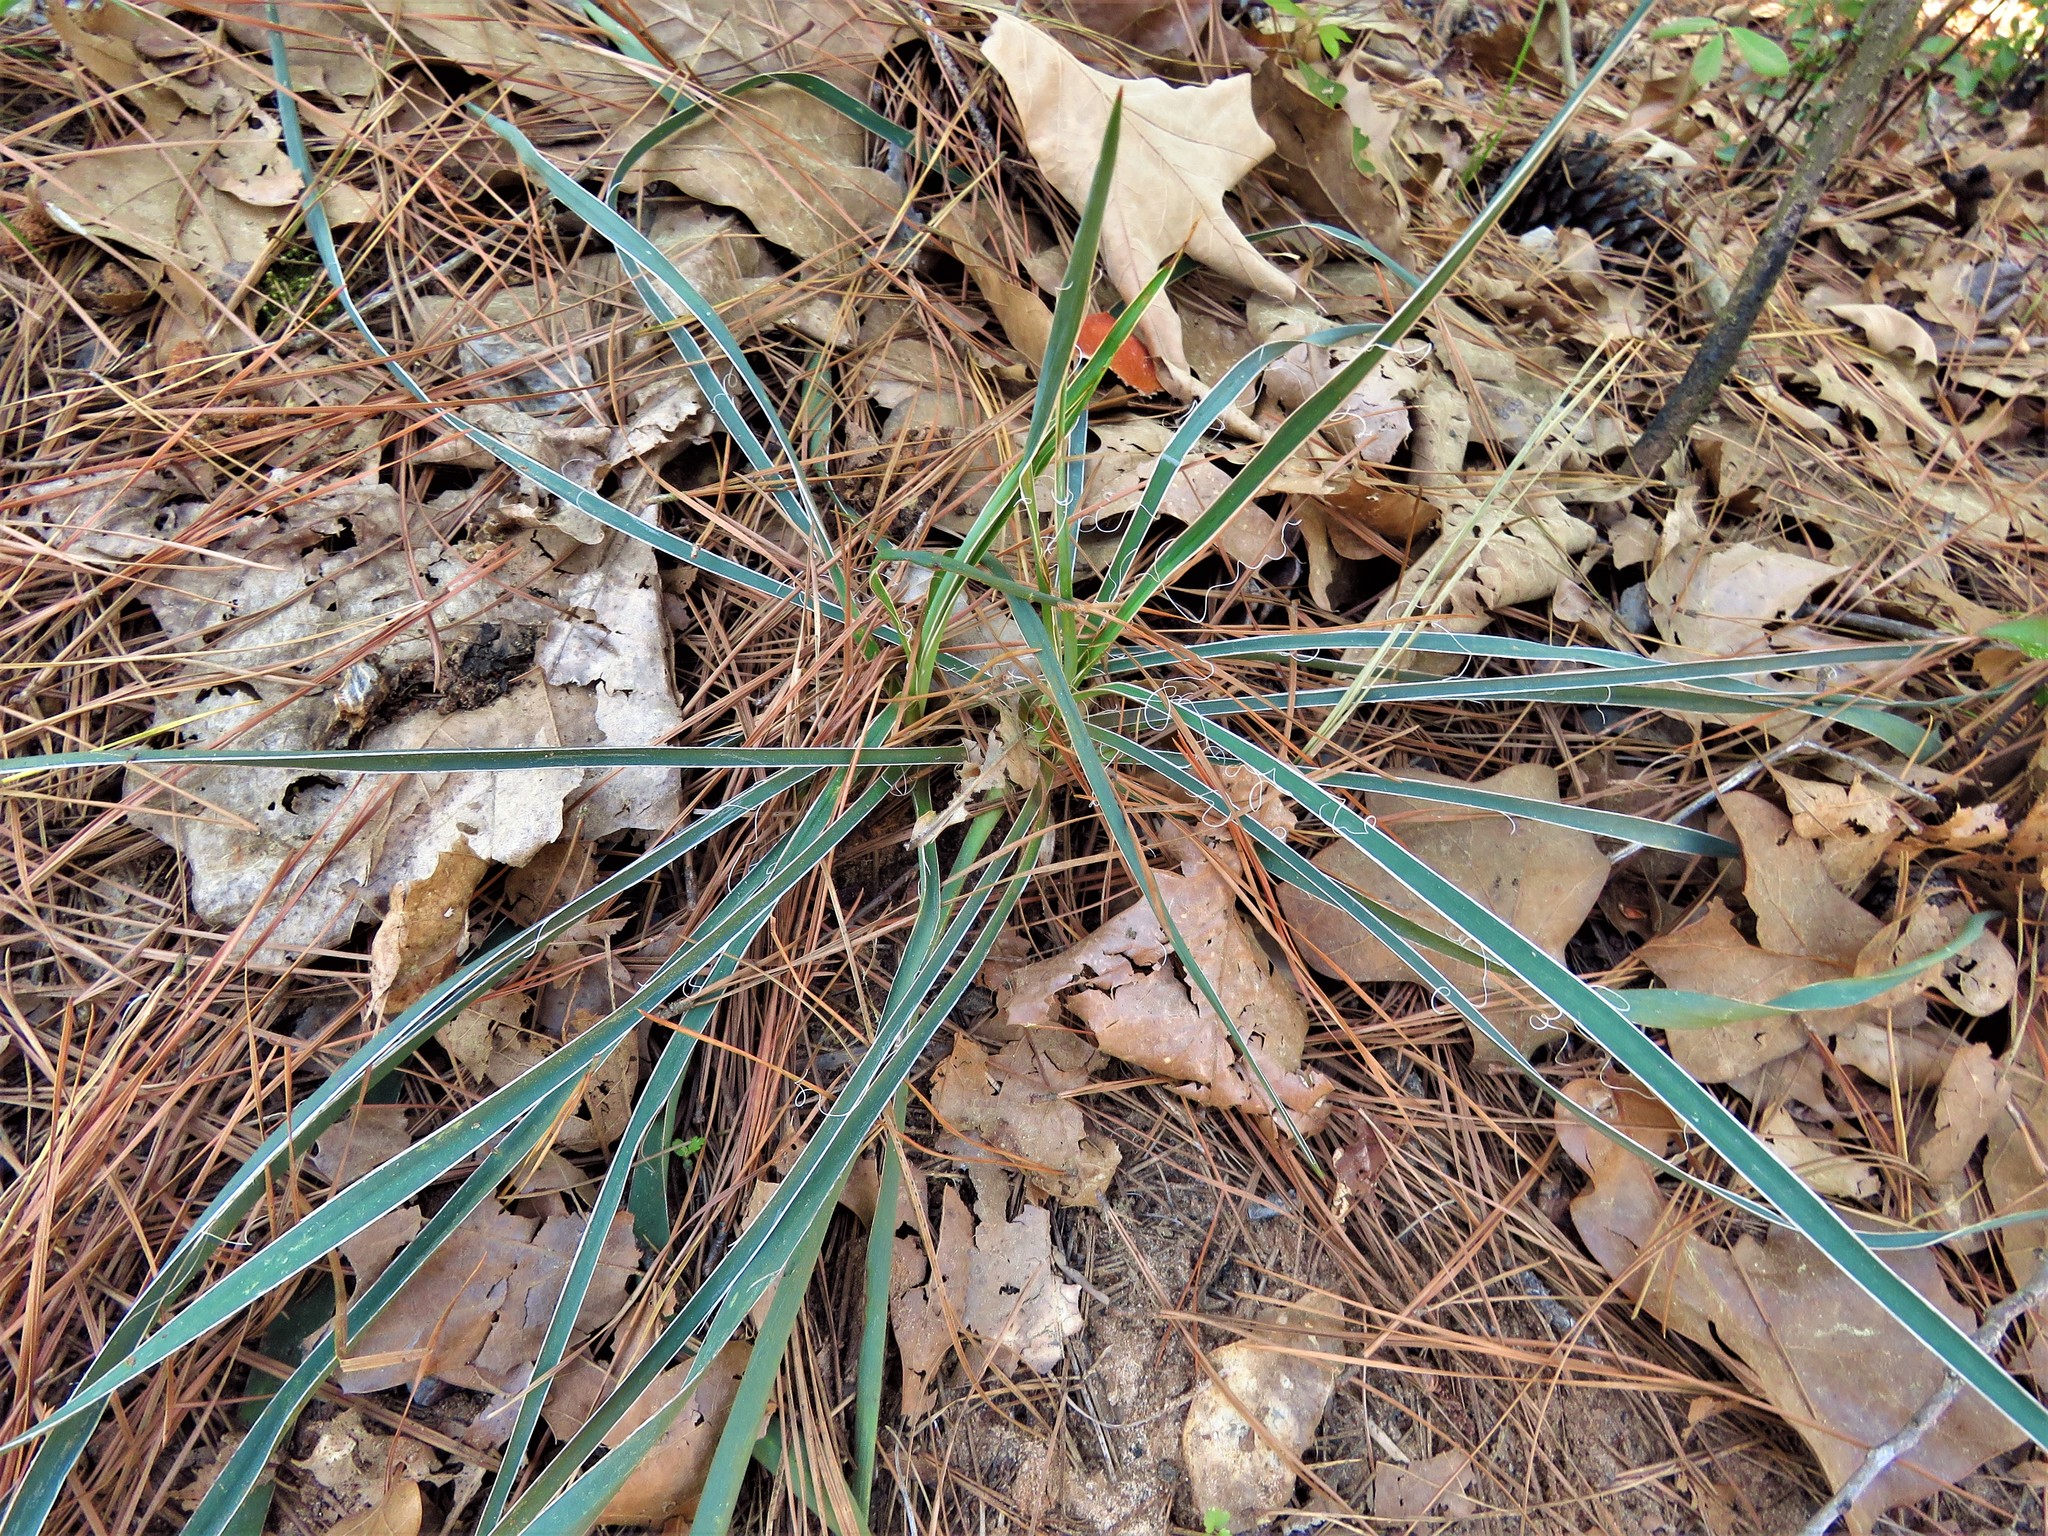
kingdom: Plantae
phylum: Tracheophyta
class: Liliopsida
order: Asparagales
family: Asparagaceae
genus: Yucca
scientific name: Yucca flaccida
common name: Adam's-needle
